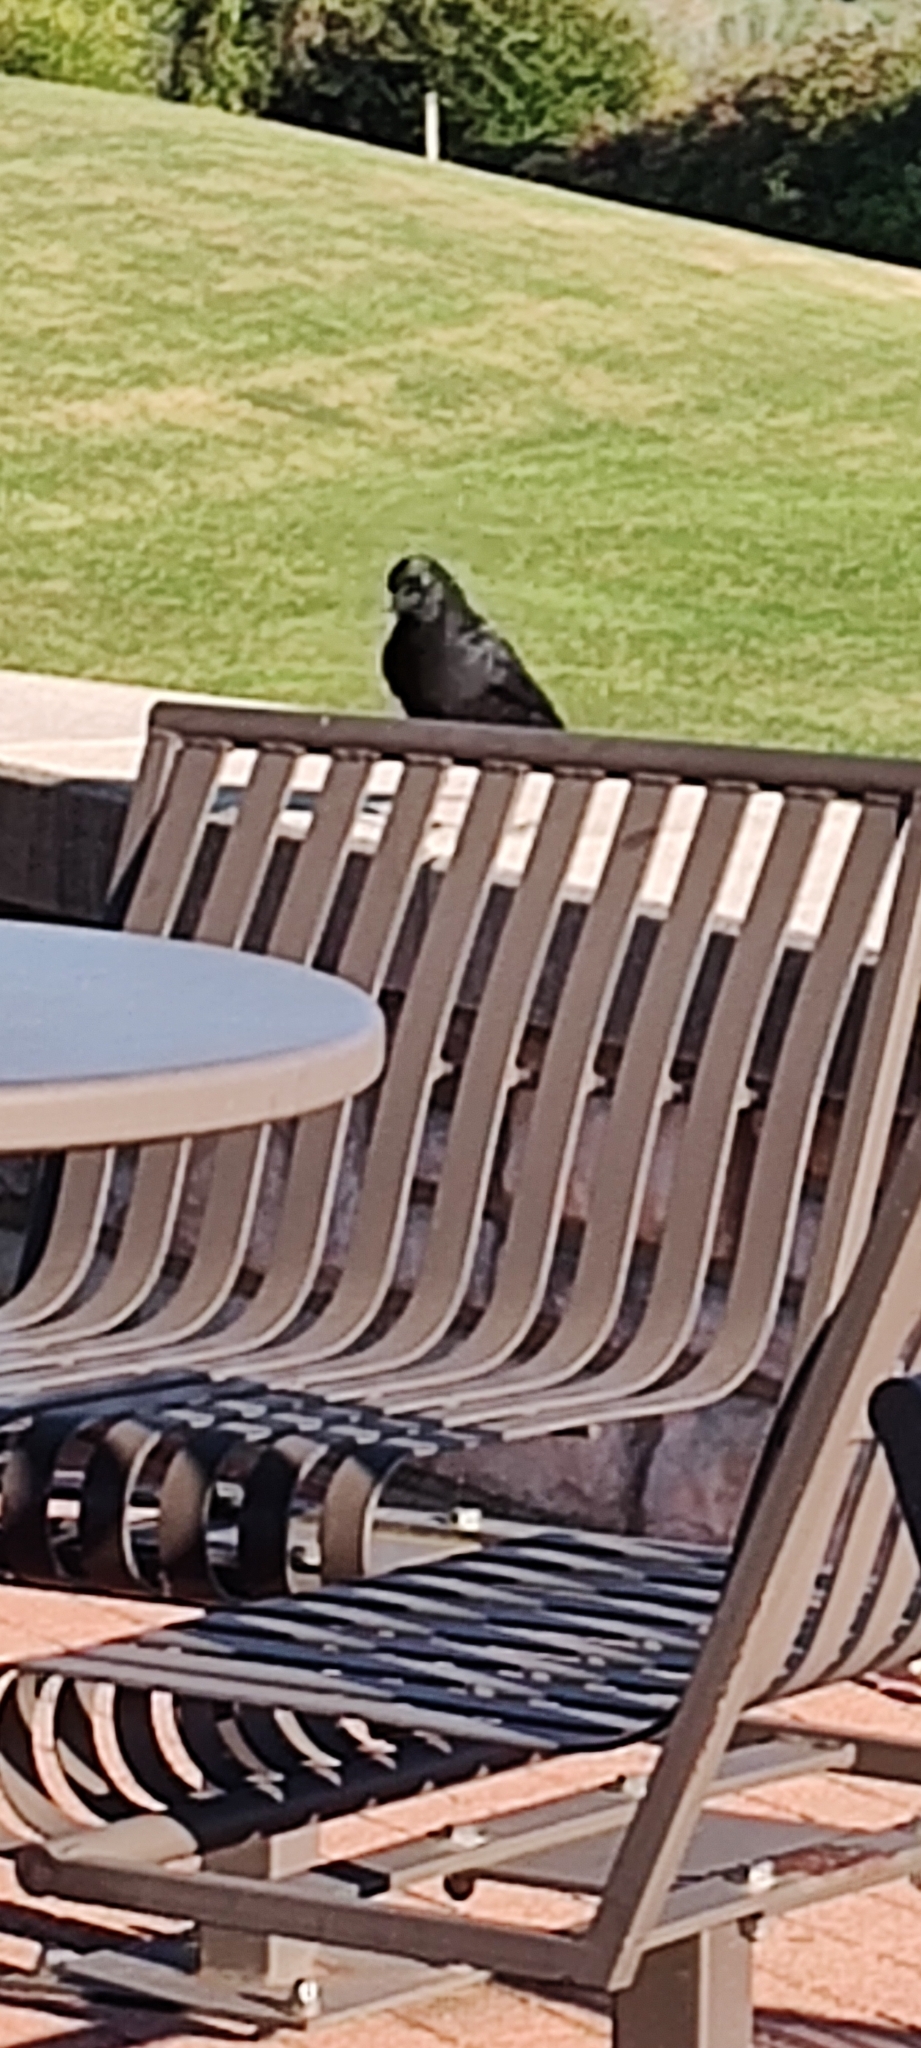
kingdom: Animalia
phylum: Chordata
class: Aves
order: Passeriformes
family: Corvidae
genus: Corvus
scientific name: Corvus brachyrhynchos
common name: American crow
